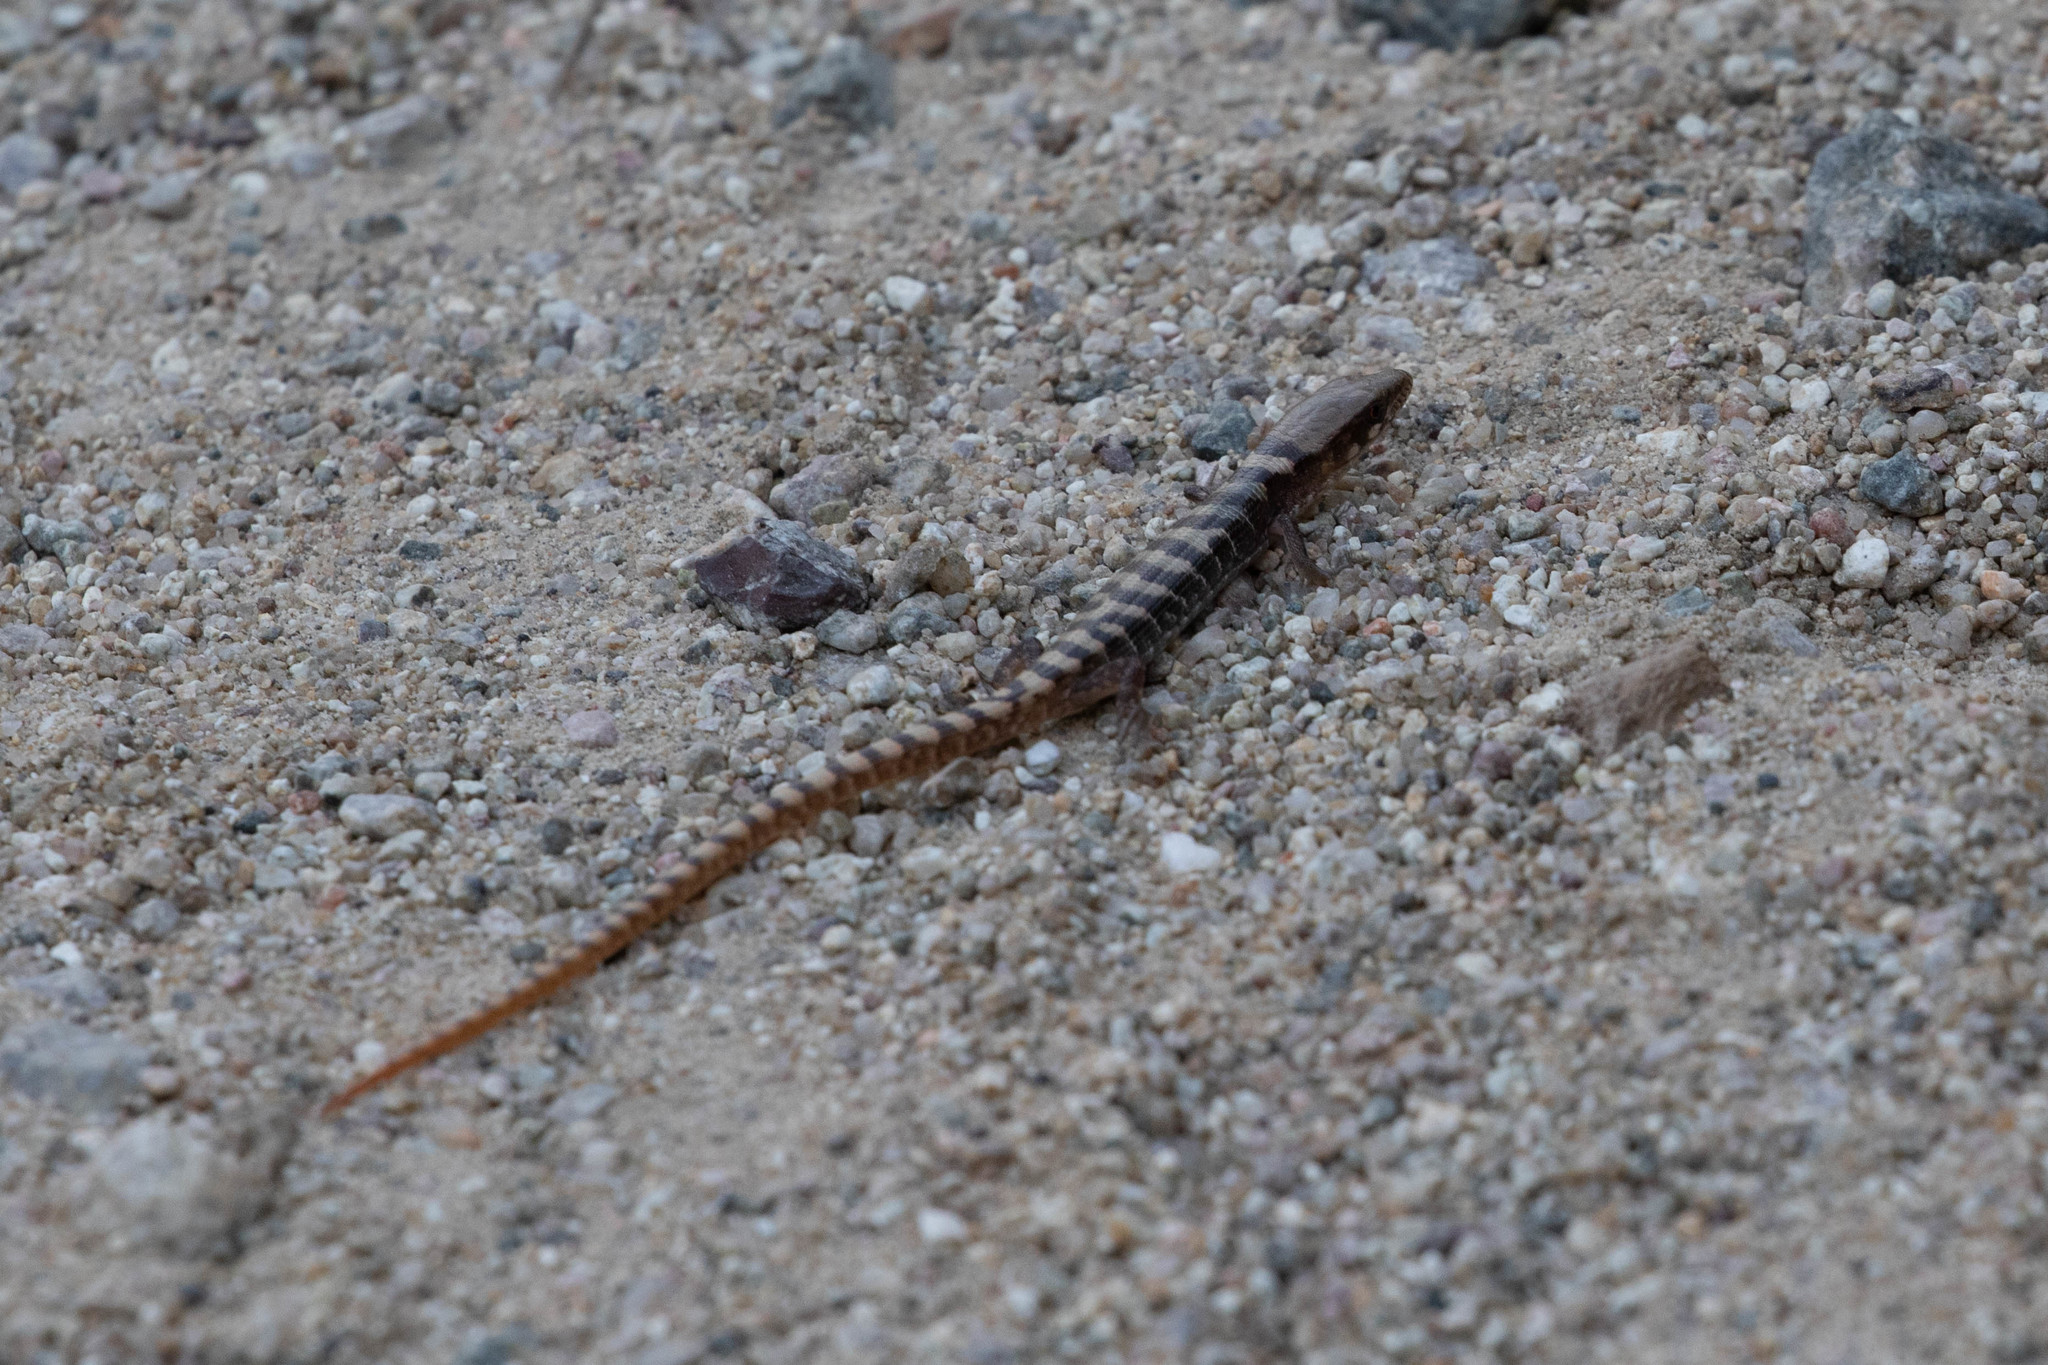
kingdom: Animalia
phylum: Chordata
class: Squamata
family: Anguidae
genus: Elgaria
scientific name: Elgaria kingii
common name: Madrean alligator lizard
